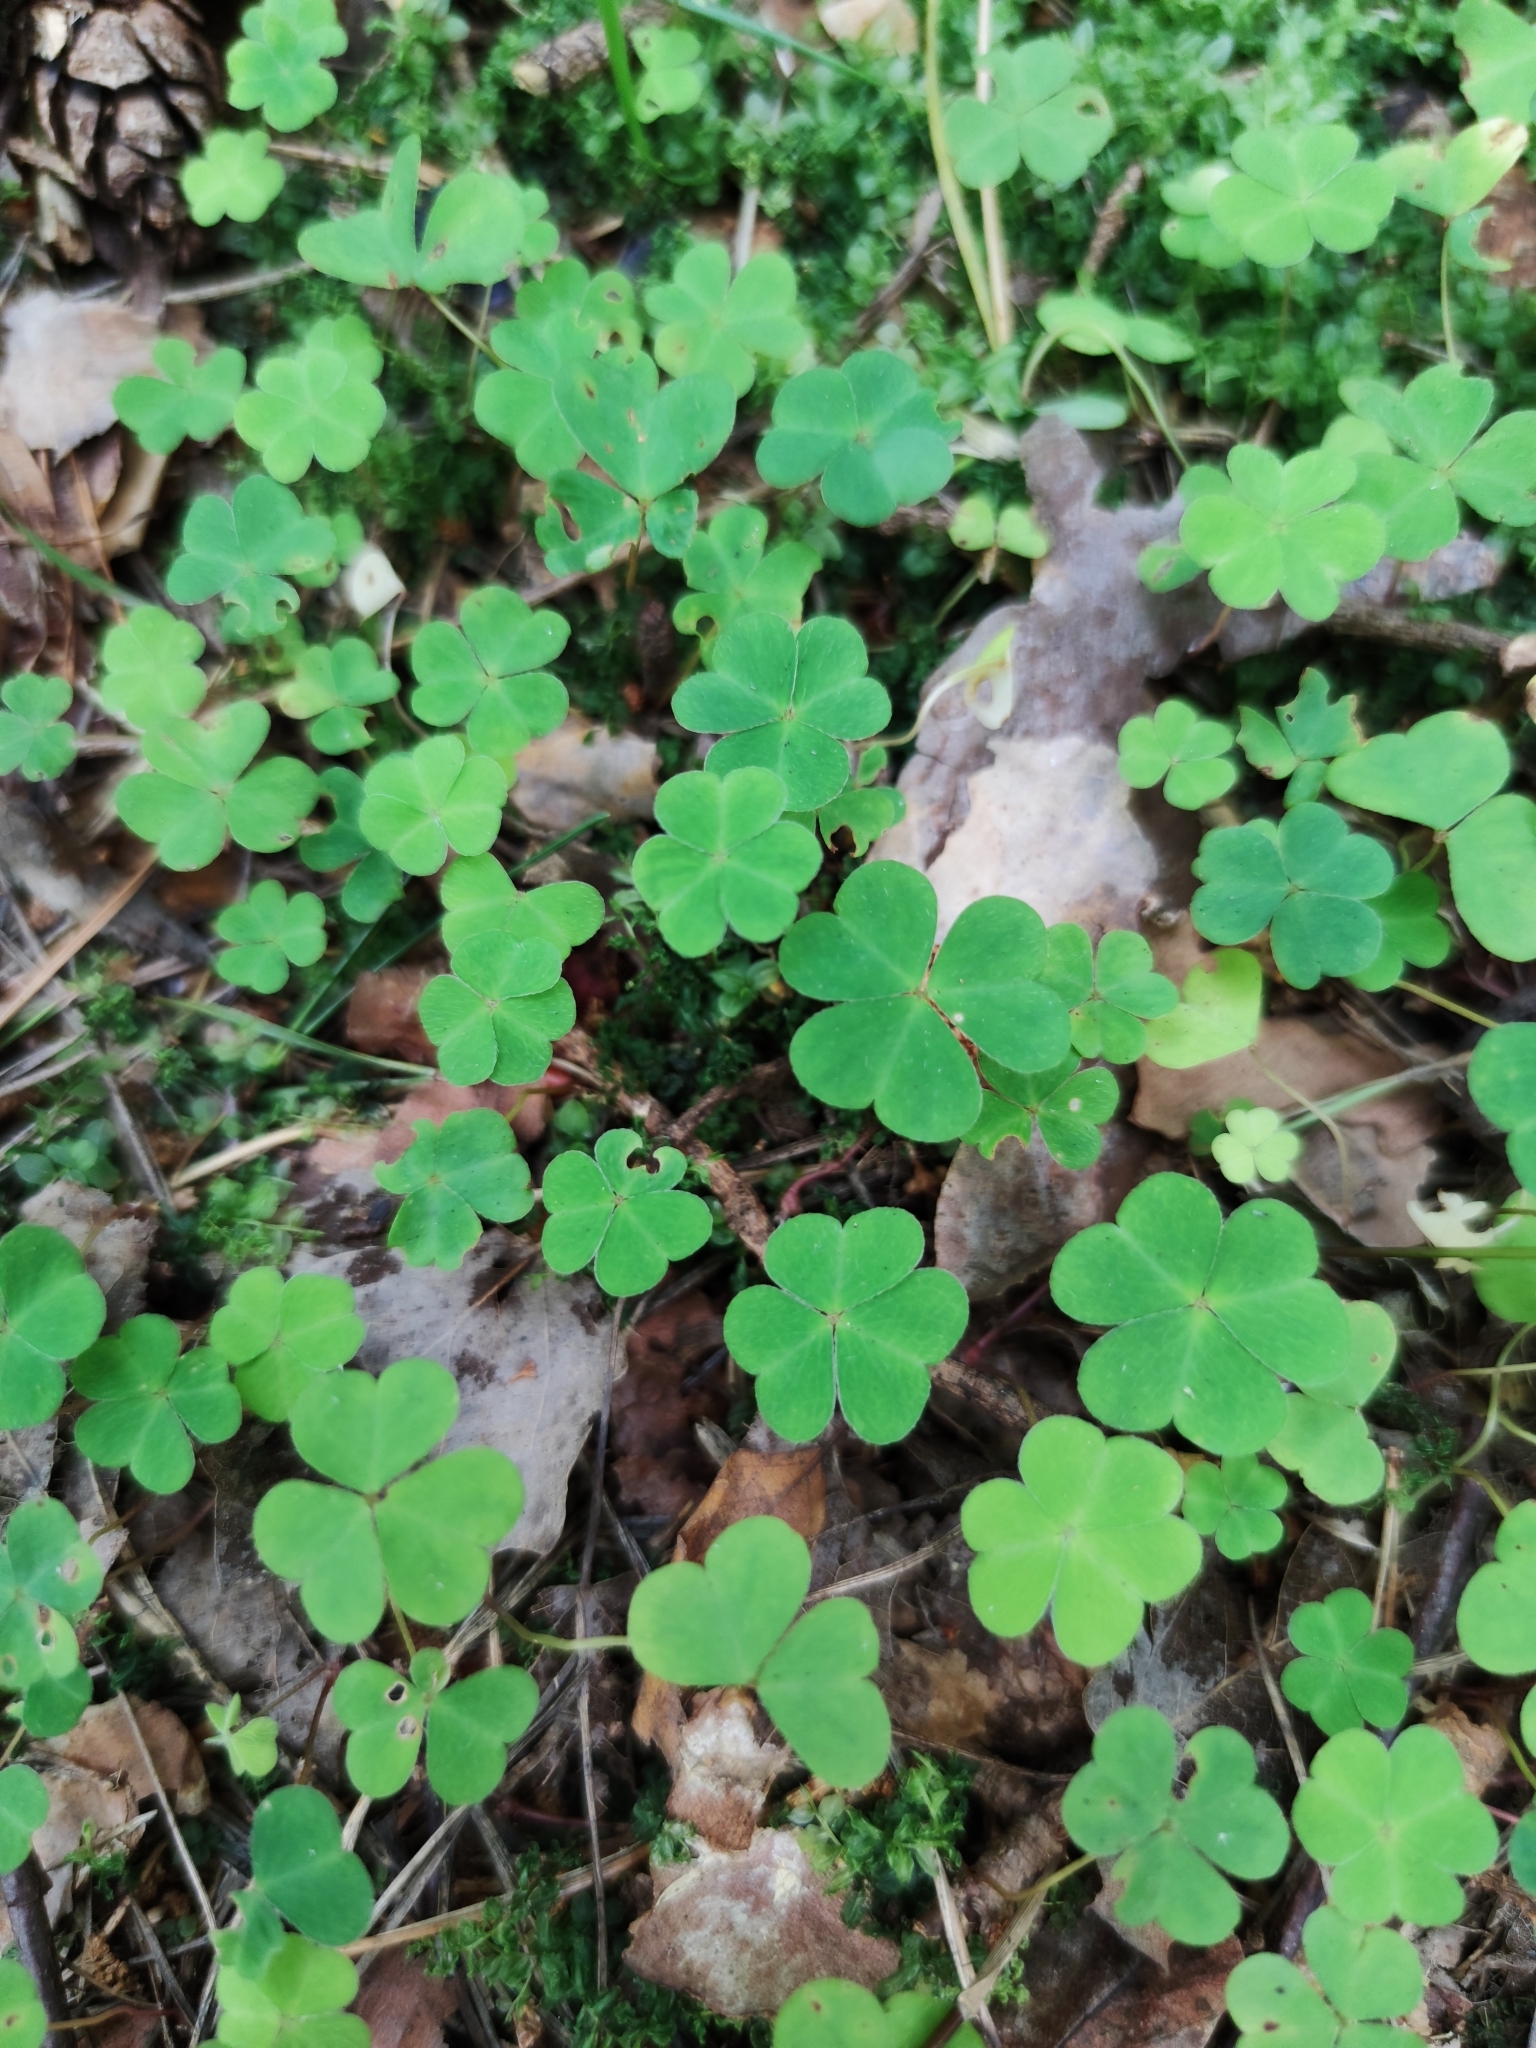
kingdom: Plantae
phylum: Tracheophyta
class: Magnoliopsida
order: Oxalidales
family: Oxalidaceae
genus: Oxalis
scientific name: Oxalis acetosella
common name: Wood-sorrel
